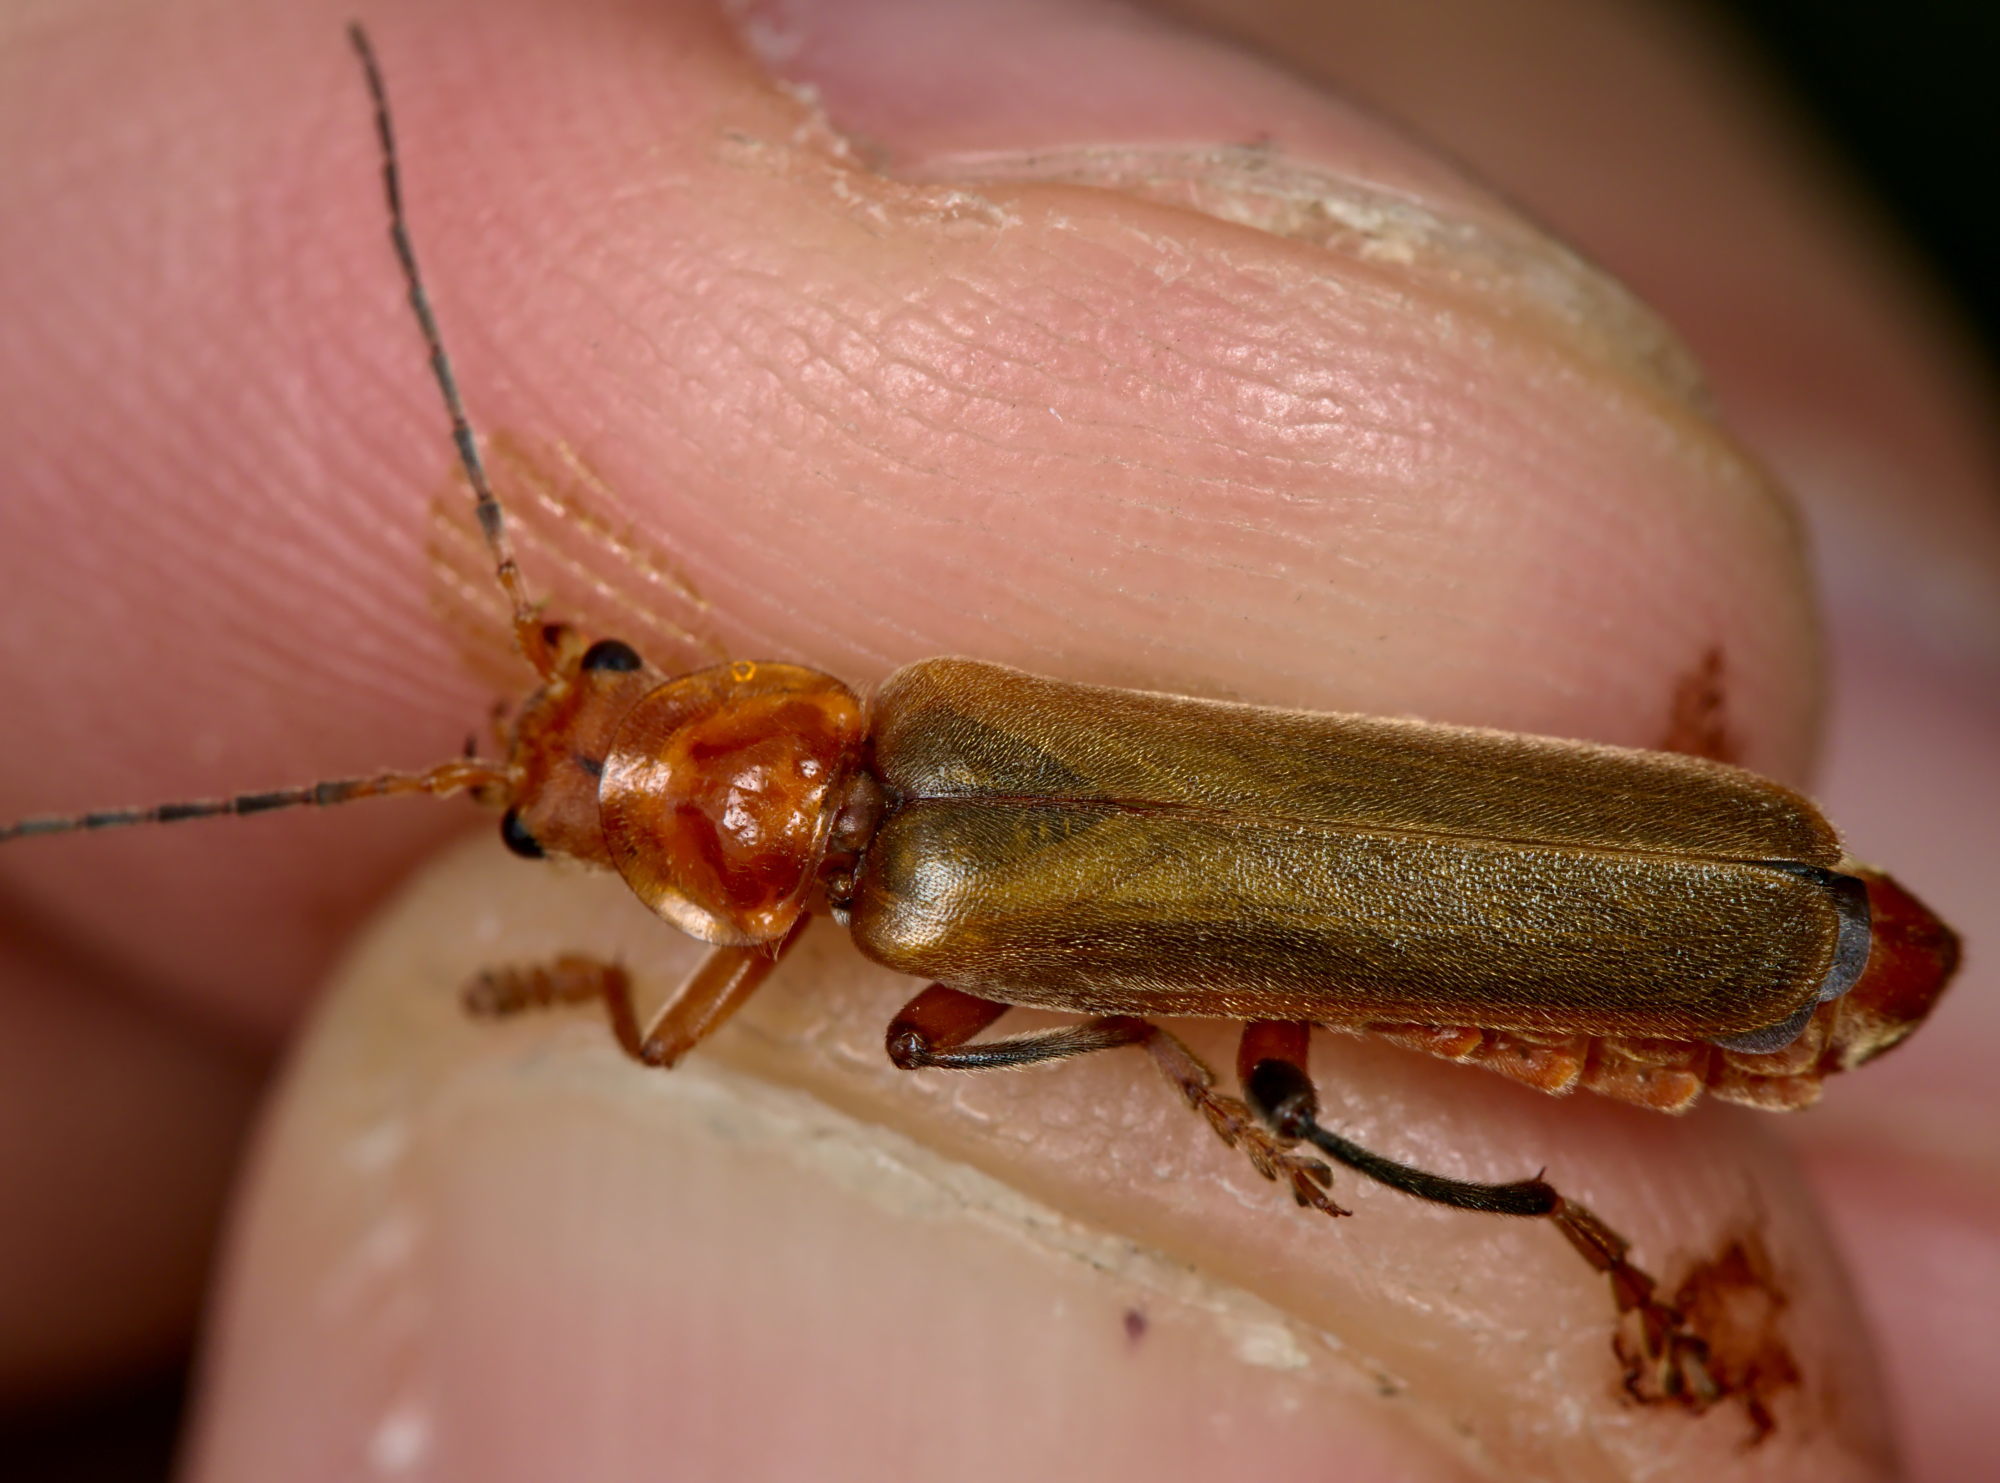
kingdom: Animalia
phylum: Arthropoda
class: Insecta
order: Coleoptera
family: Cantharidae
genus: Cantharis
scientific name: Cantharis livida
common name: Livid soldier beetle
